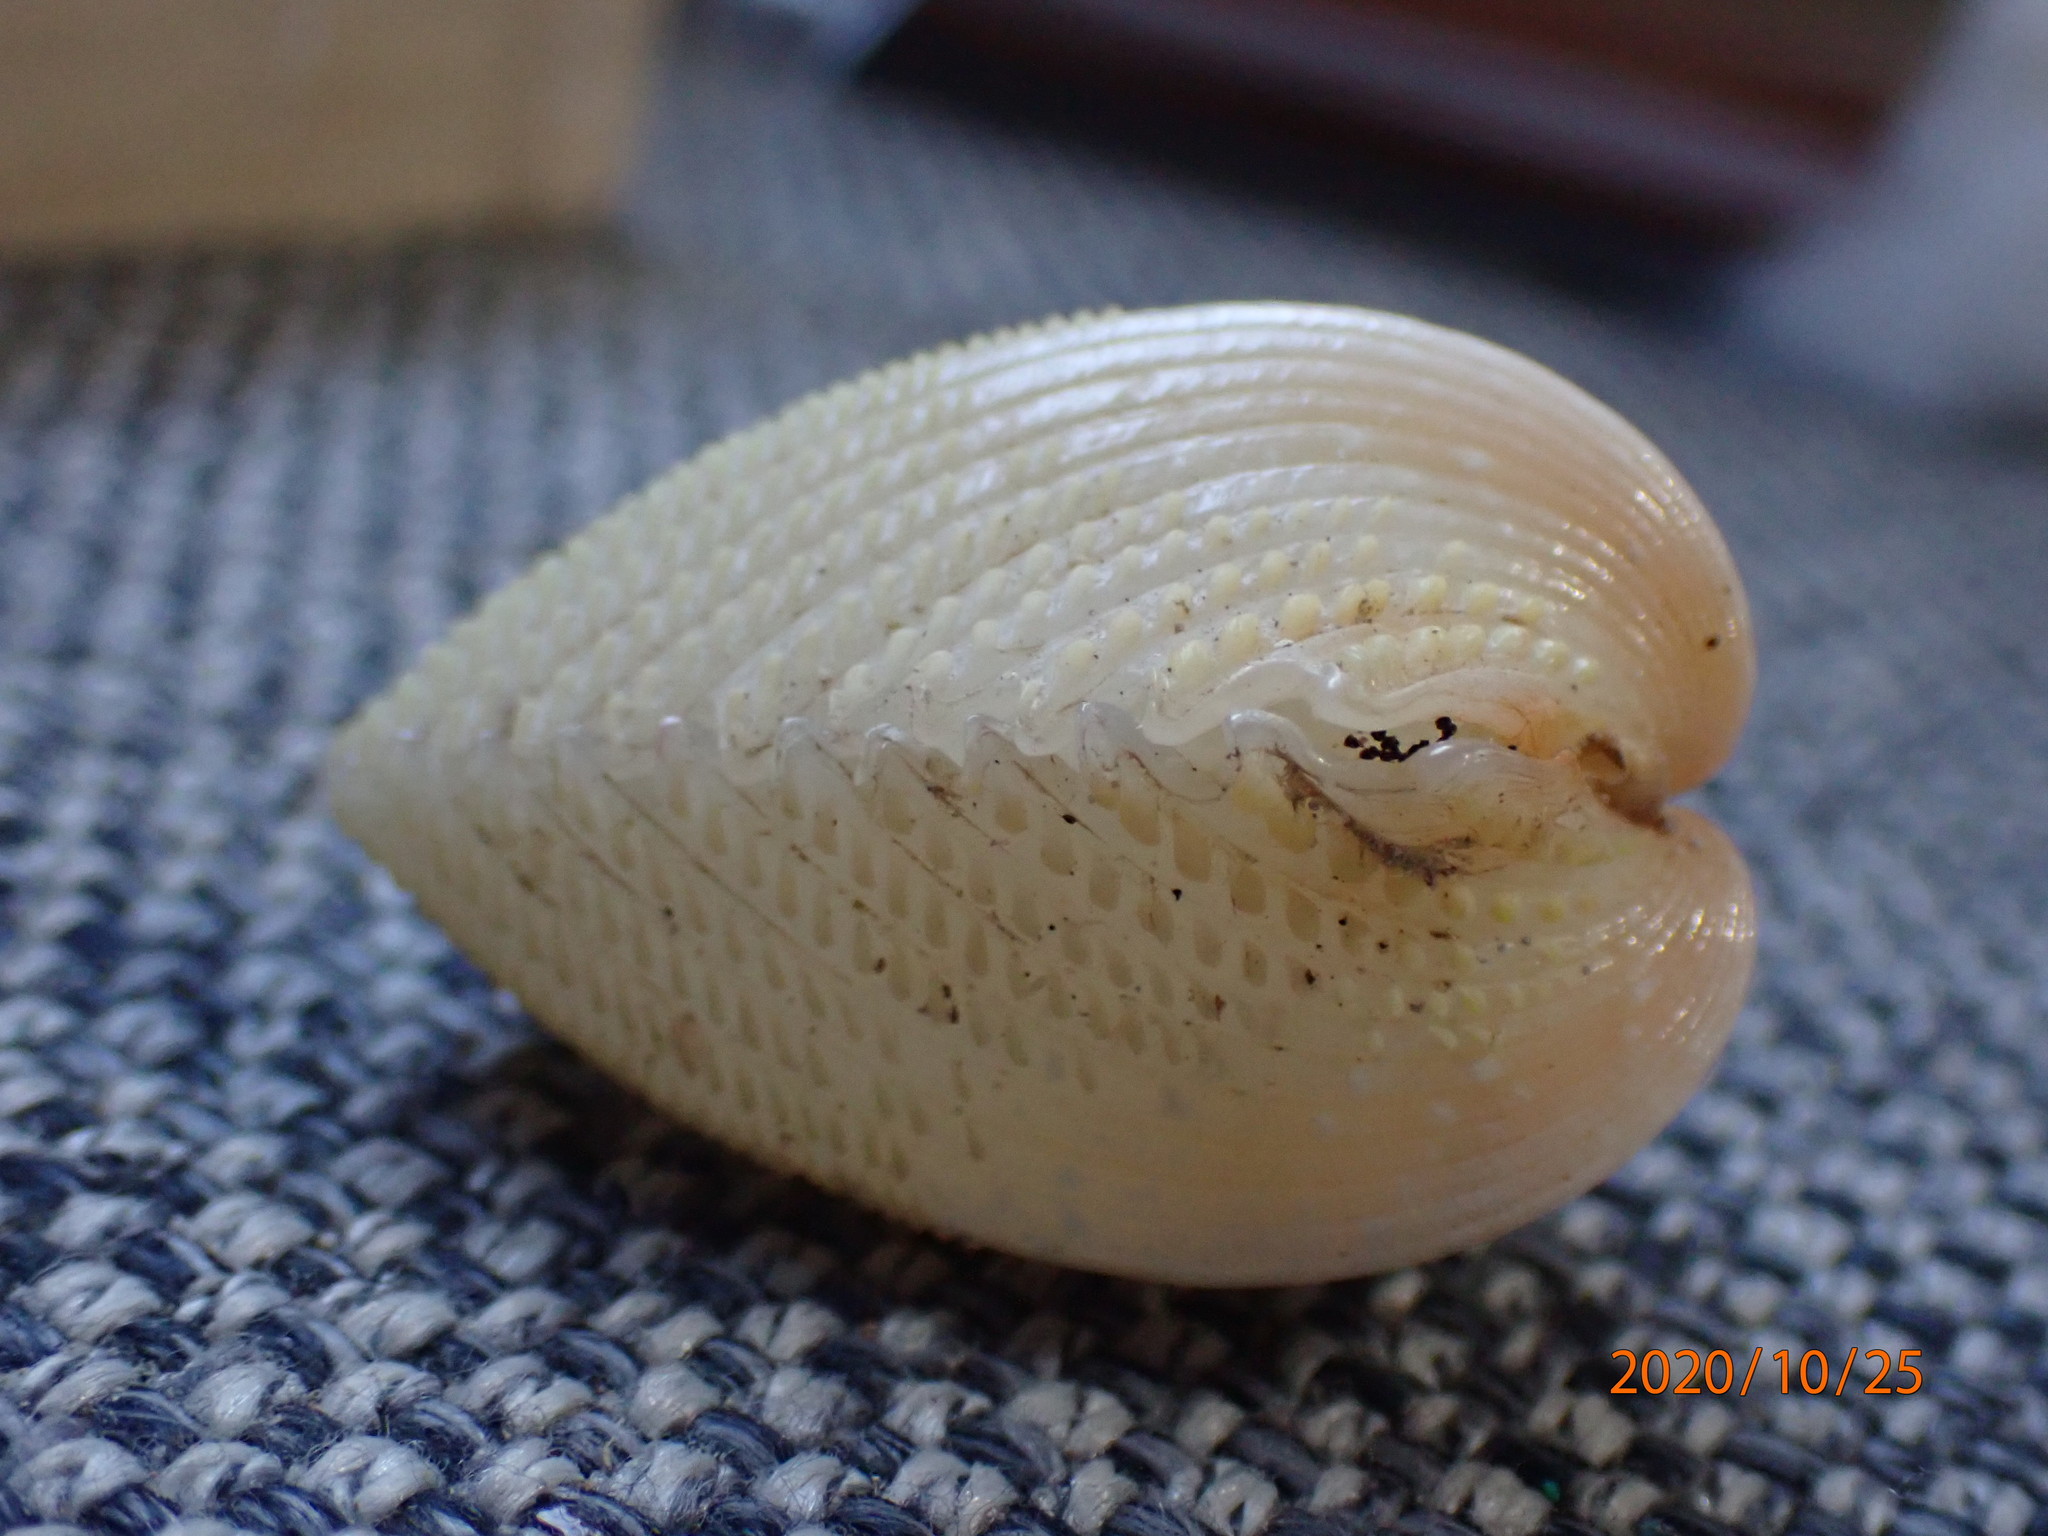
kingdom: Animalia
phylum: Mollusca
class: Bivalvia
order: Cardiida
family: Cardiidae
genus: Fragum
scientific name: Fragum fragum
